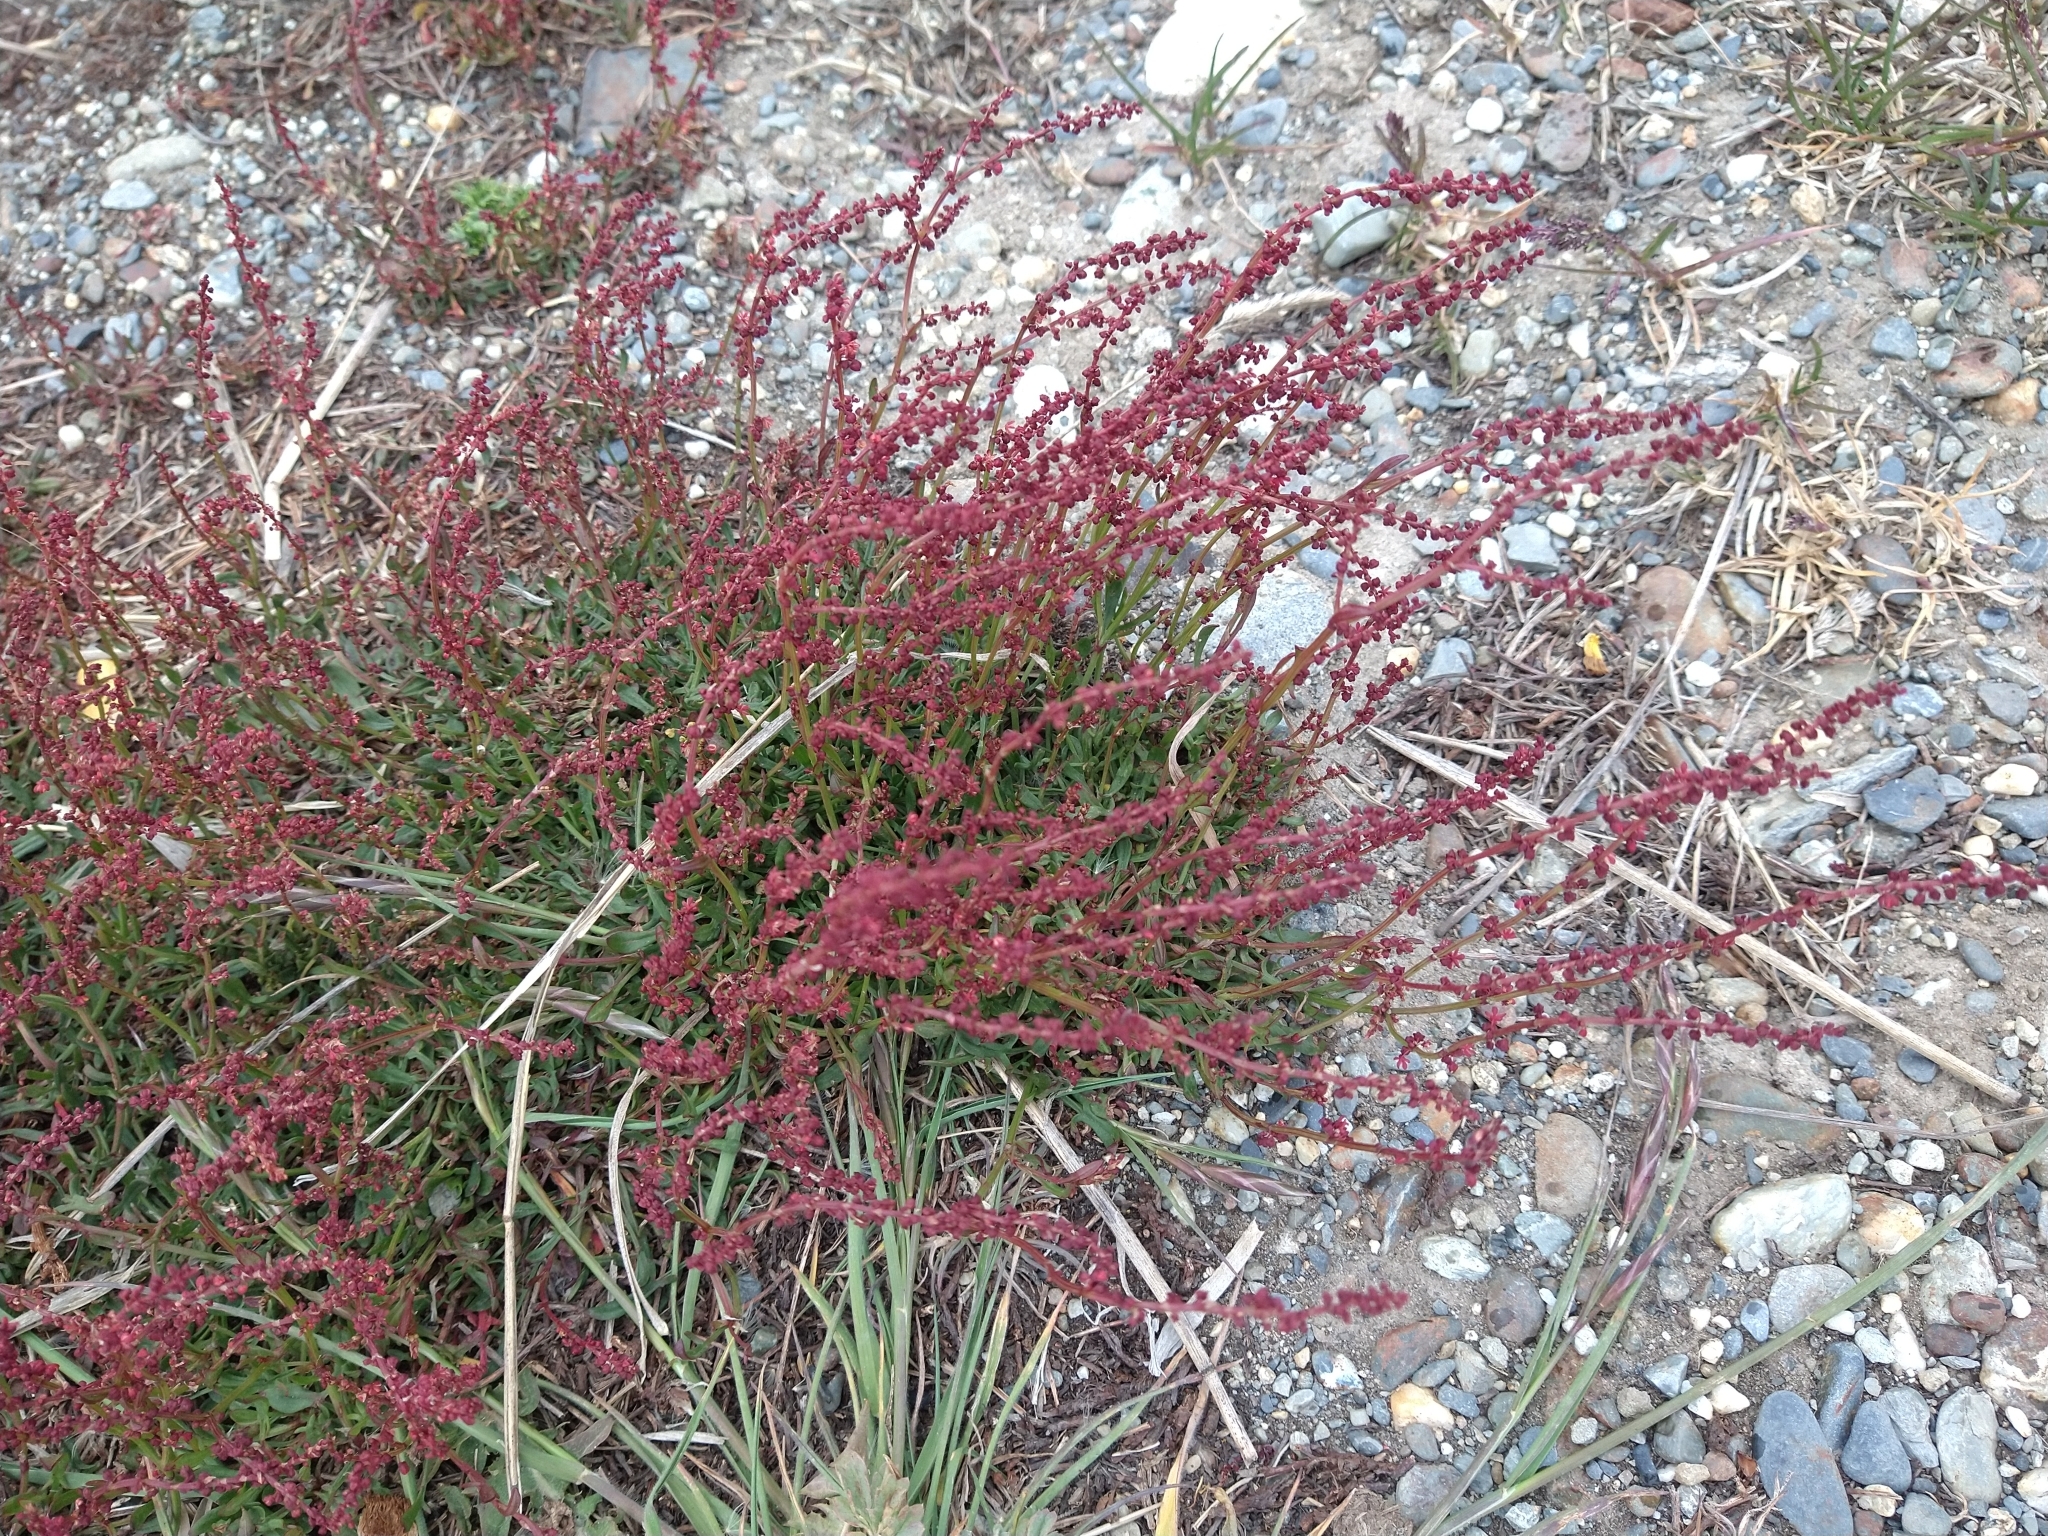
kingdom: Plantae
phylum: Tracheophyta
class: Magnoliopsida
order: Caryophyllales
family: Polygonaceae
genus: Rumex
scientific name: Rumex acetosella
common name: Common sheep sorrel
